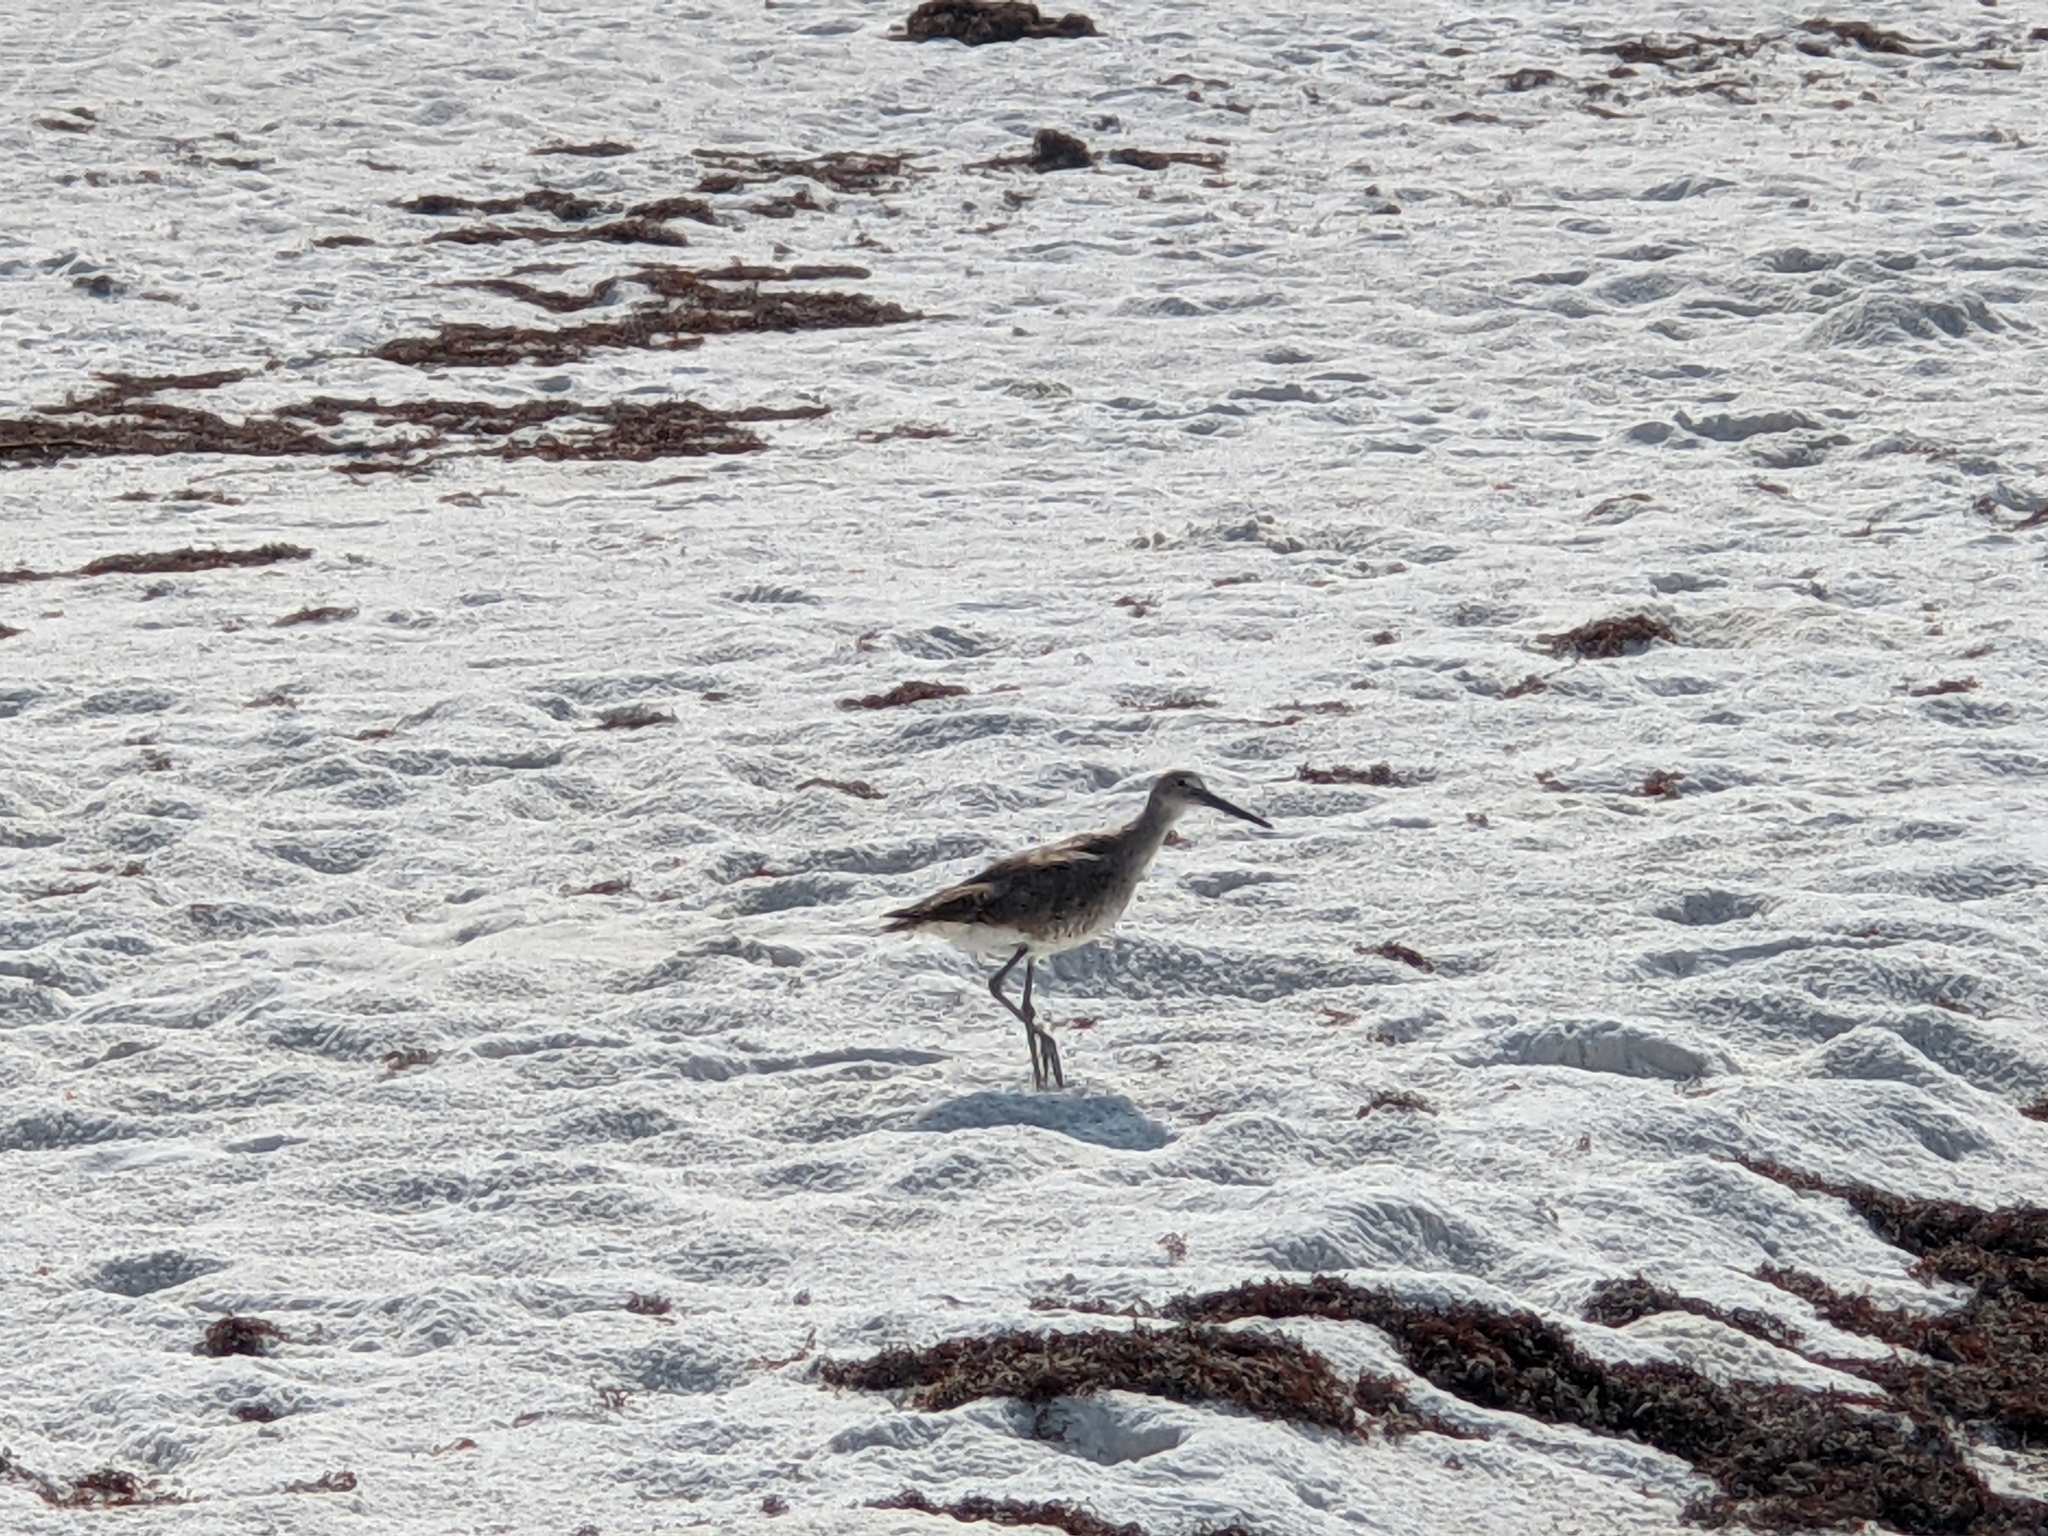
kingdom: Animalia
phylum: Chordata
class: Aves
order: Charadriiformes
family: Scolopacidae
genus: Tringa
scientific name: Tringa semipalmata
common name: Willet
